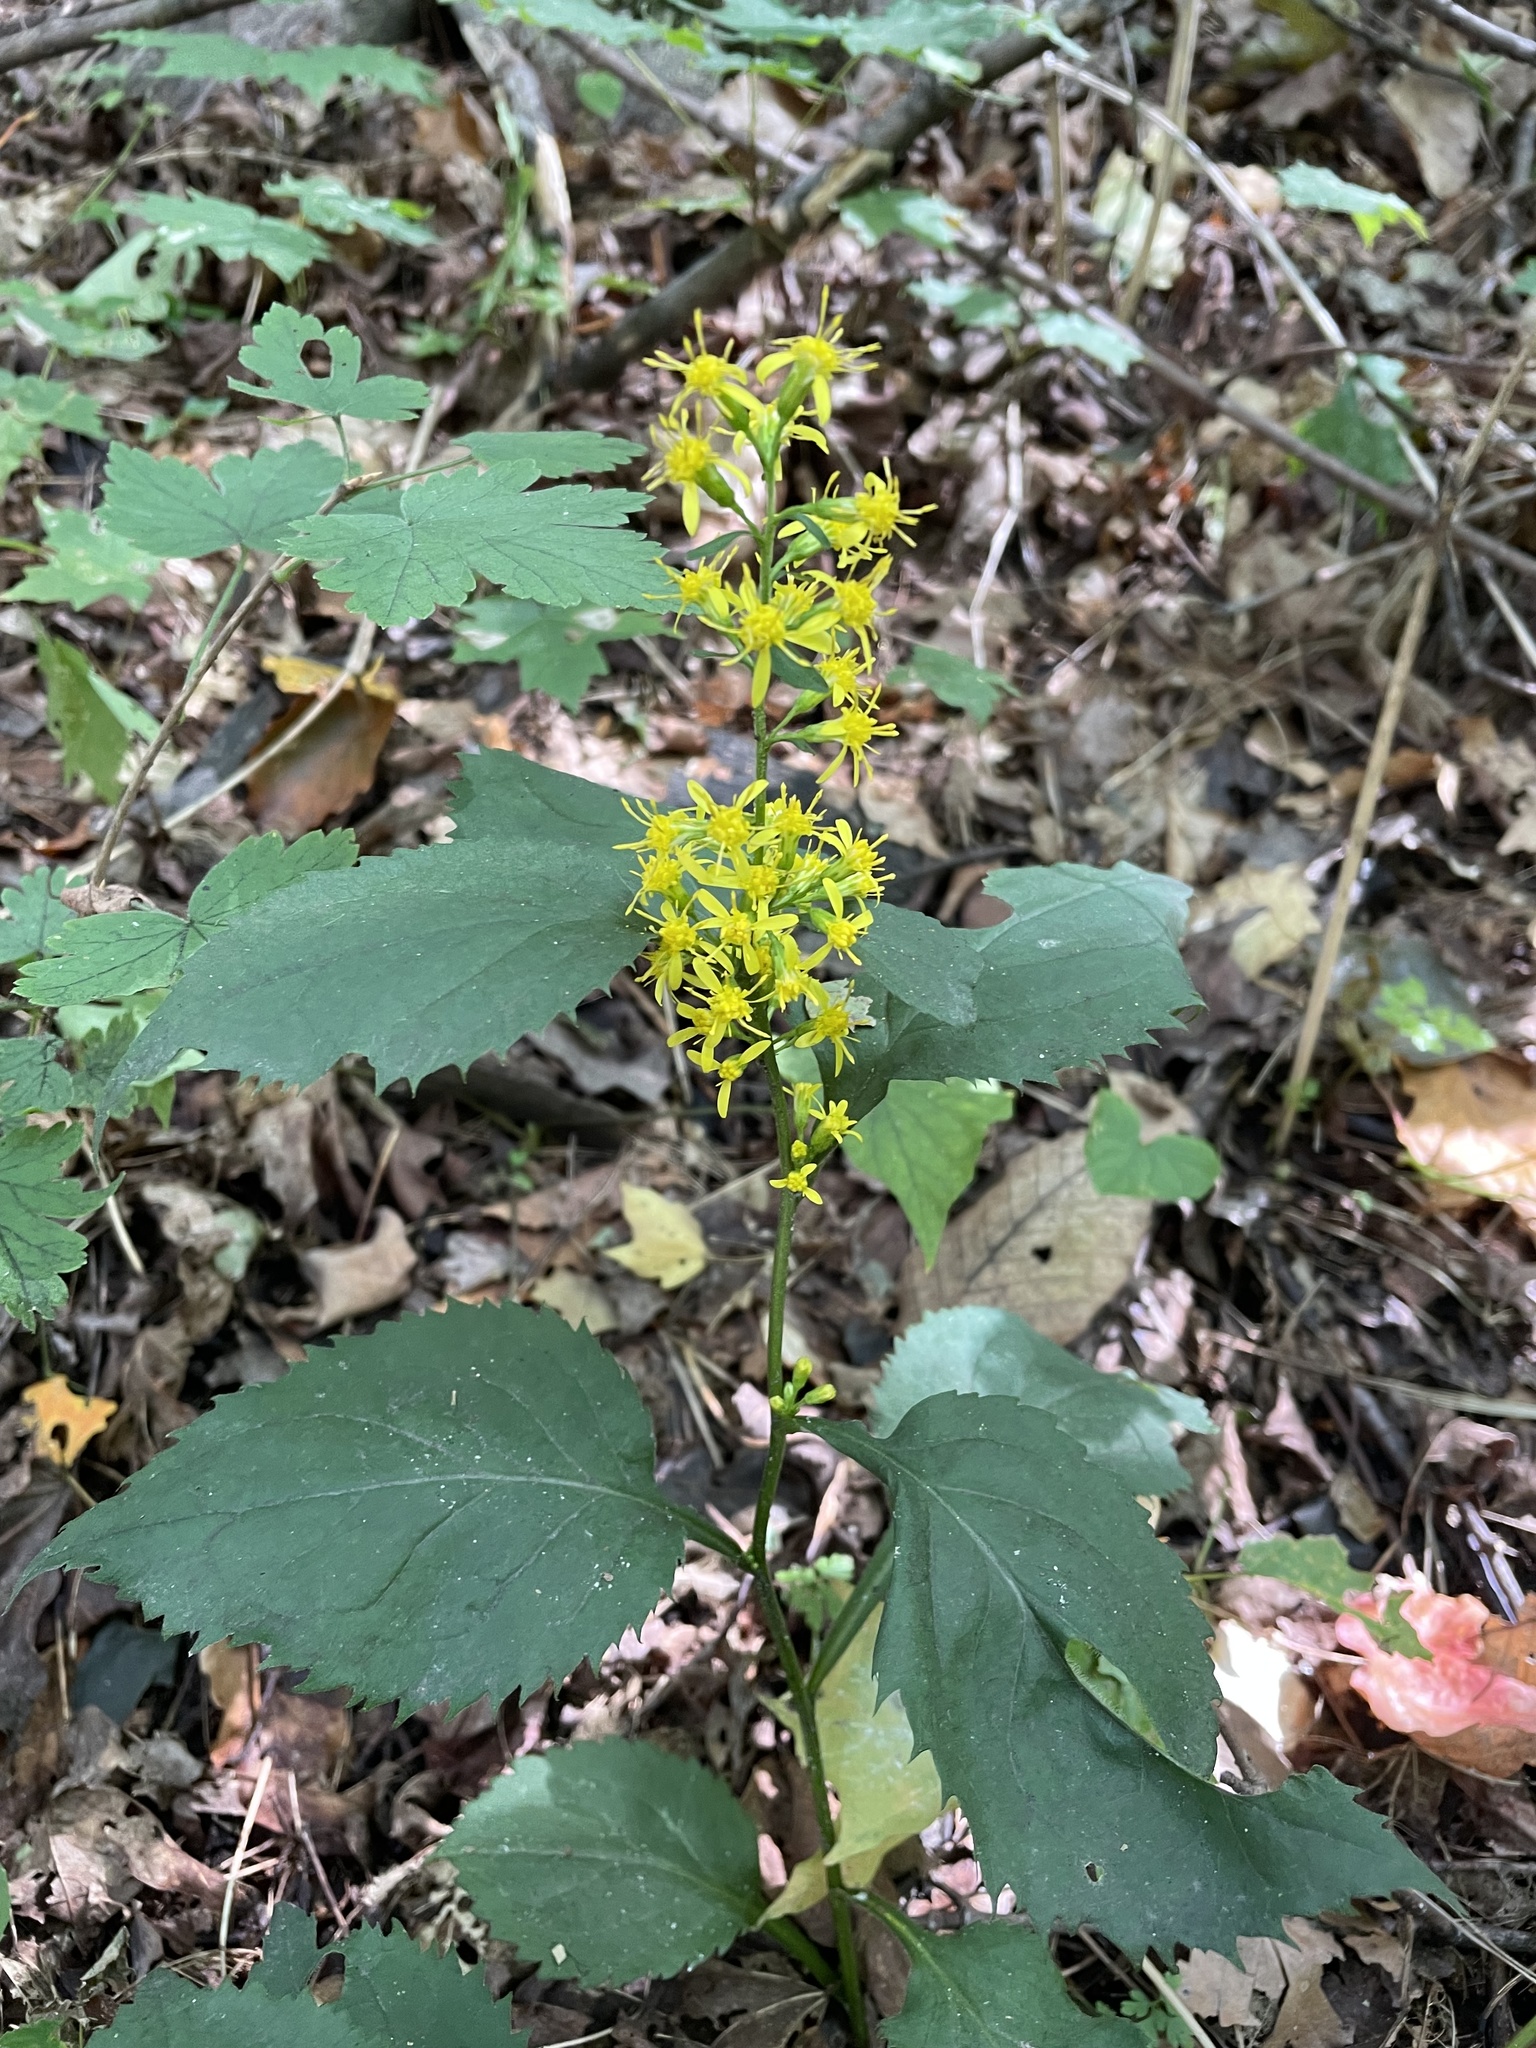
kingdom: Plantae
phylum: Tracheophyta
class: Magnoliopsida
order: Asterales
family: Asteraceae
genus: Solidago
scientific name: Solidago flexicaulis
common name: Zig-zag goldenrod
